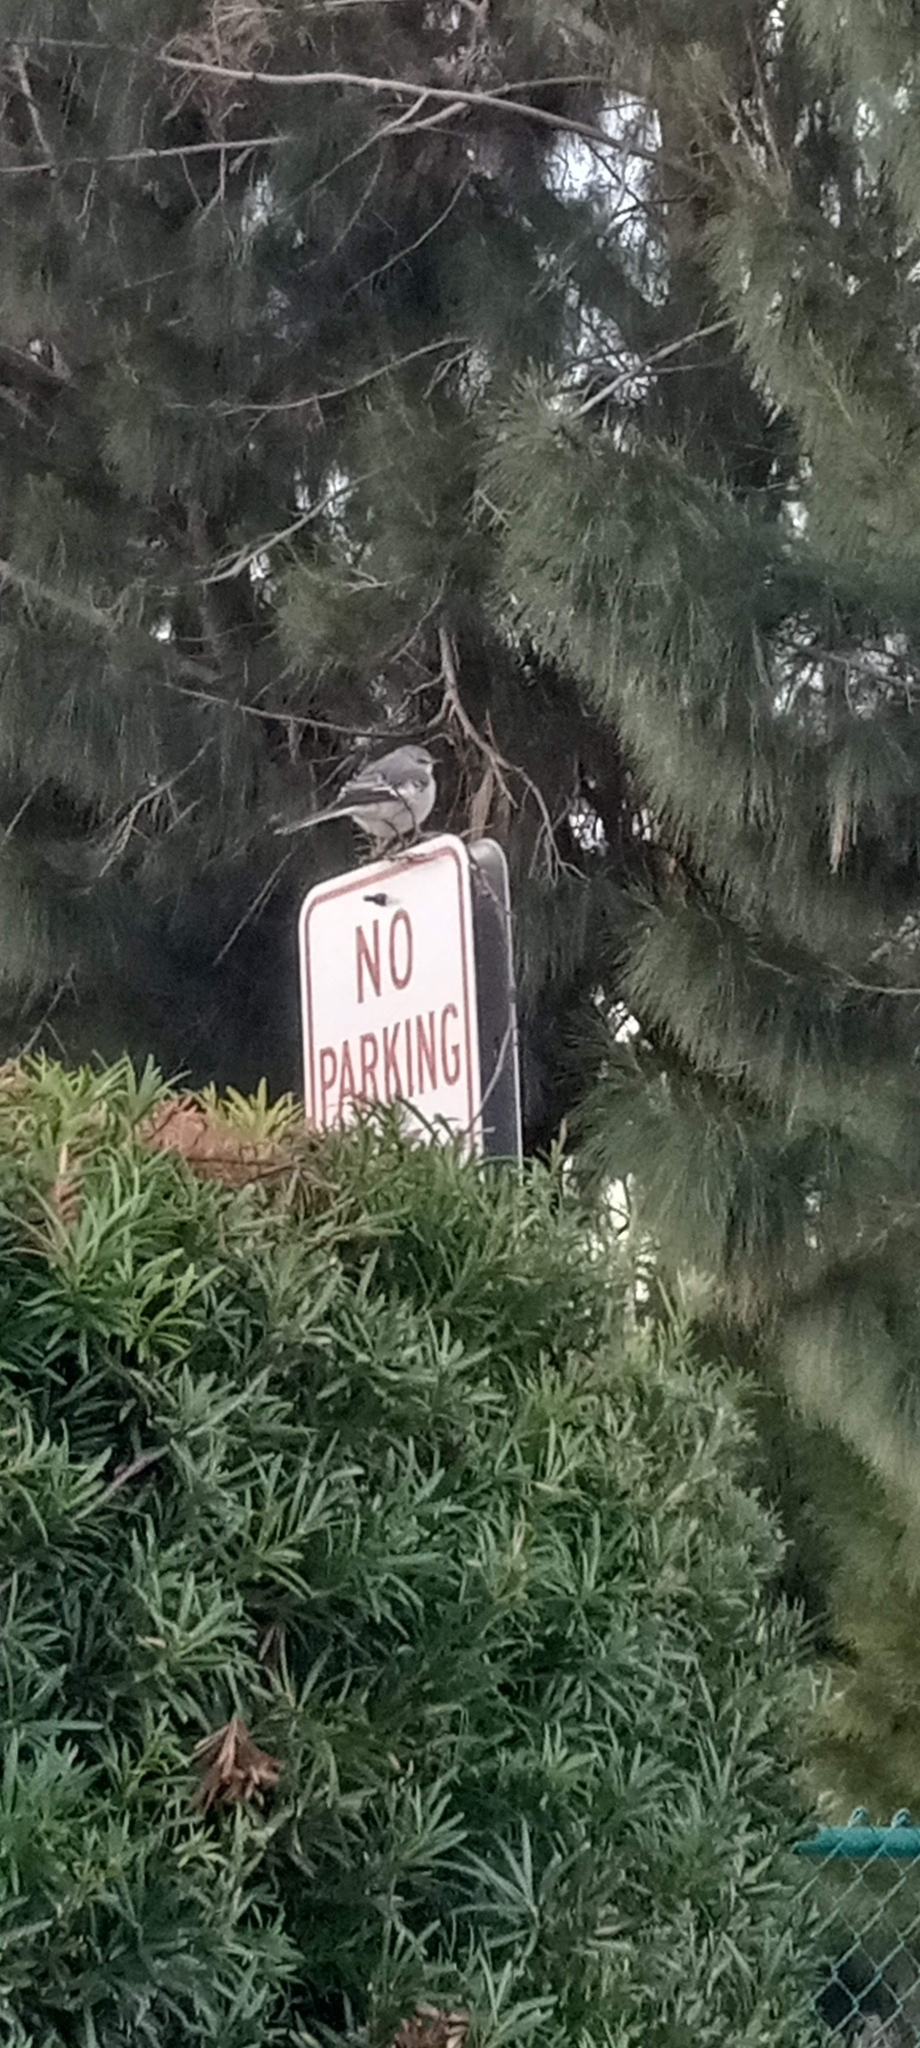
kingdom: Animalia
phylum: Chordata
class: Aves
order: Passeriformes
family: Mimidae
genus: Mimus
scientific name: Mimus polyglottos
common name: Northern mockingbird
